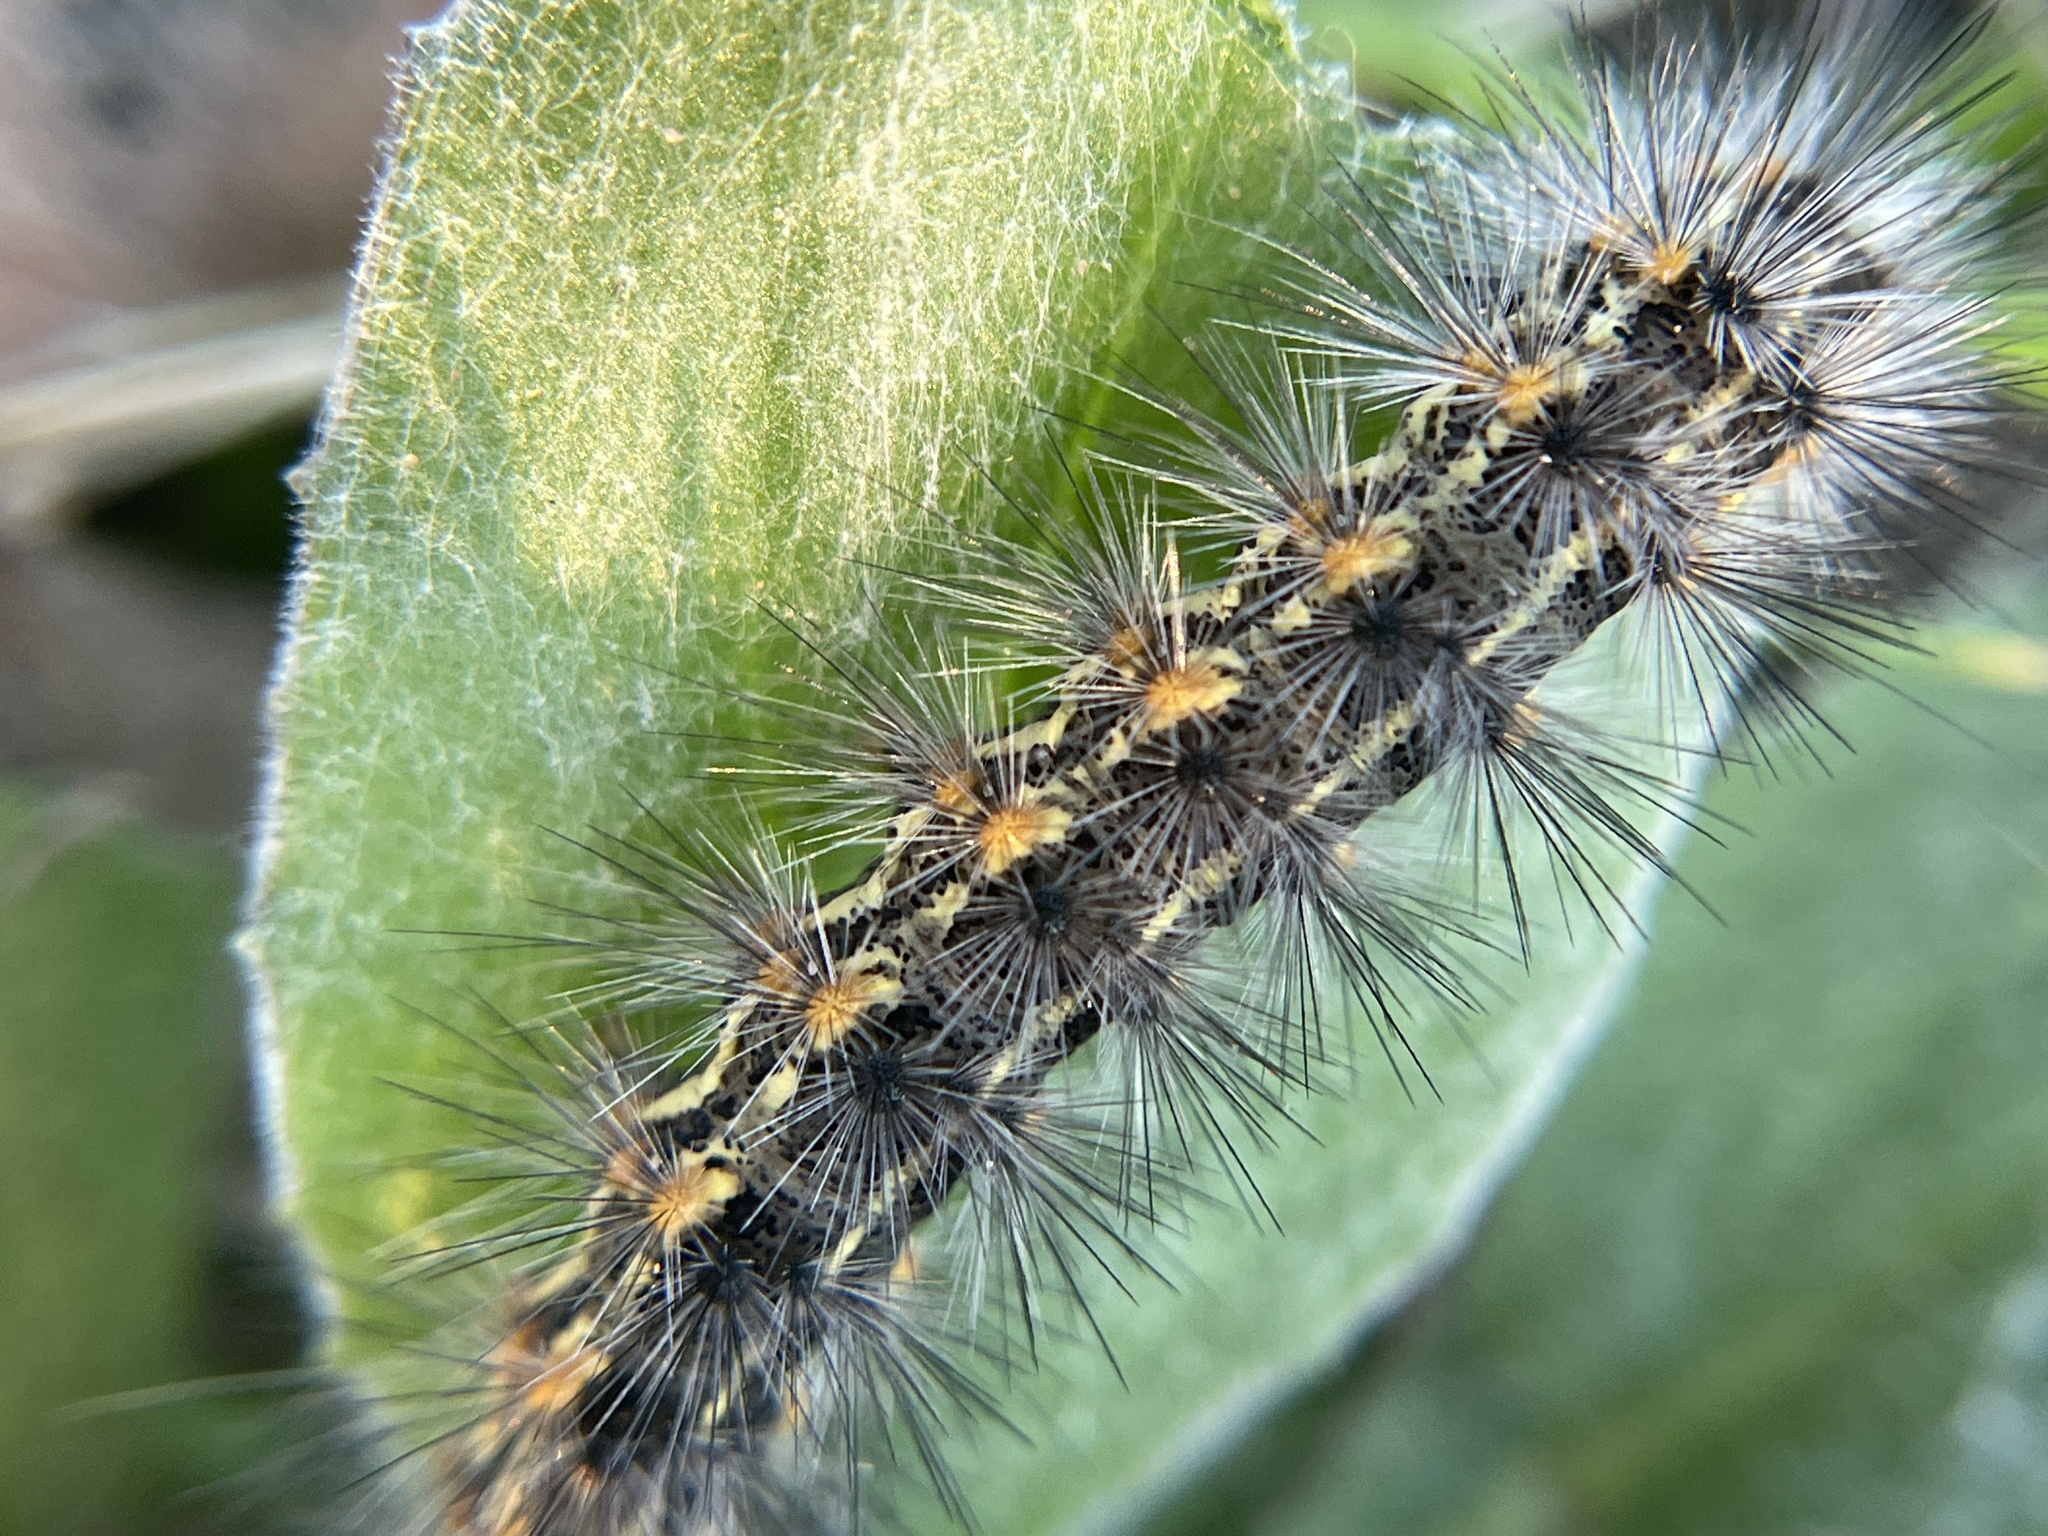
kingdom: Animalia
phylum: Arthropoda
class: Insecta
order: Lepidoptera
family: Erebidae
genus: Estigmene
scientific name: Estigmene acrea
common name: Salt marsh moth
